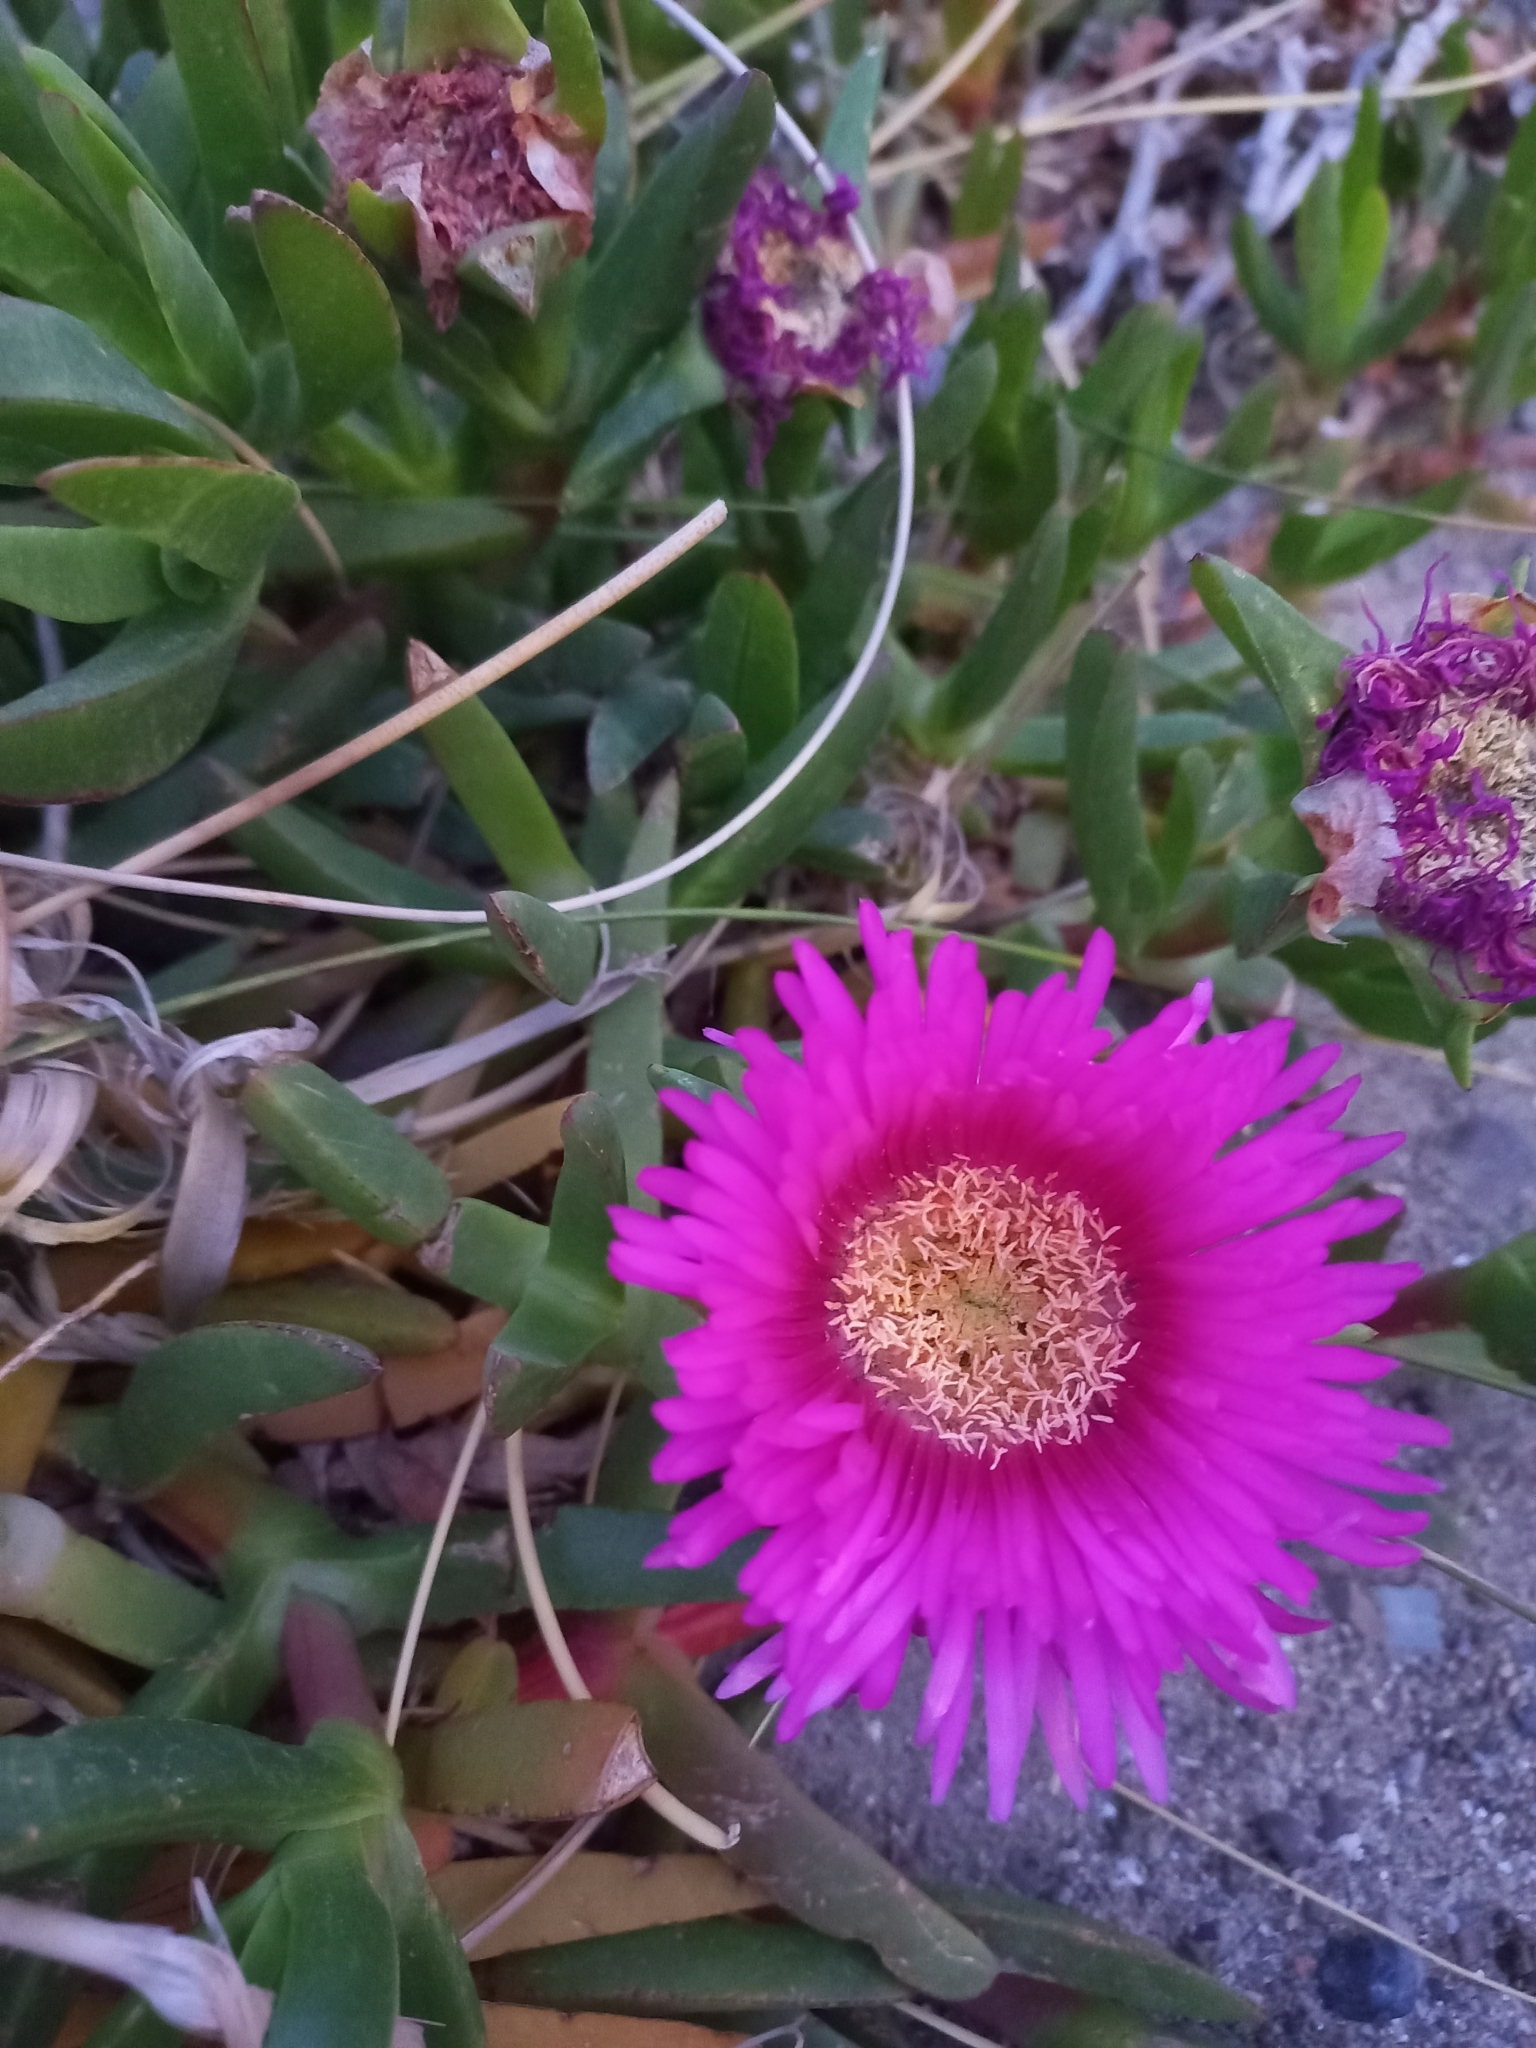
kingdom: Plantae
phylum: Tracheophyta
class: Magnoliopsida
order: Caryophyllales
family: Aizoaceae
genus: Carpobrotus
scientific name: Carpobrotus edulis
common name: Hottentot-fig
